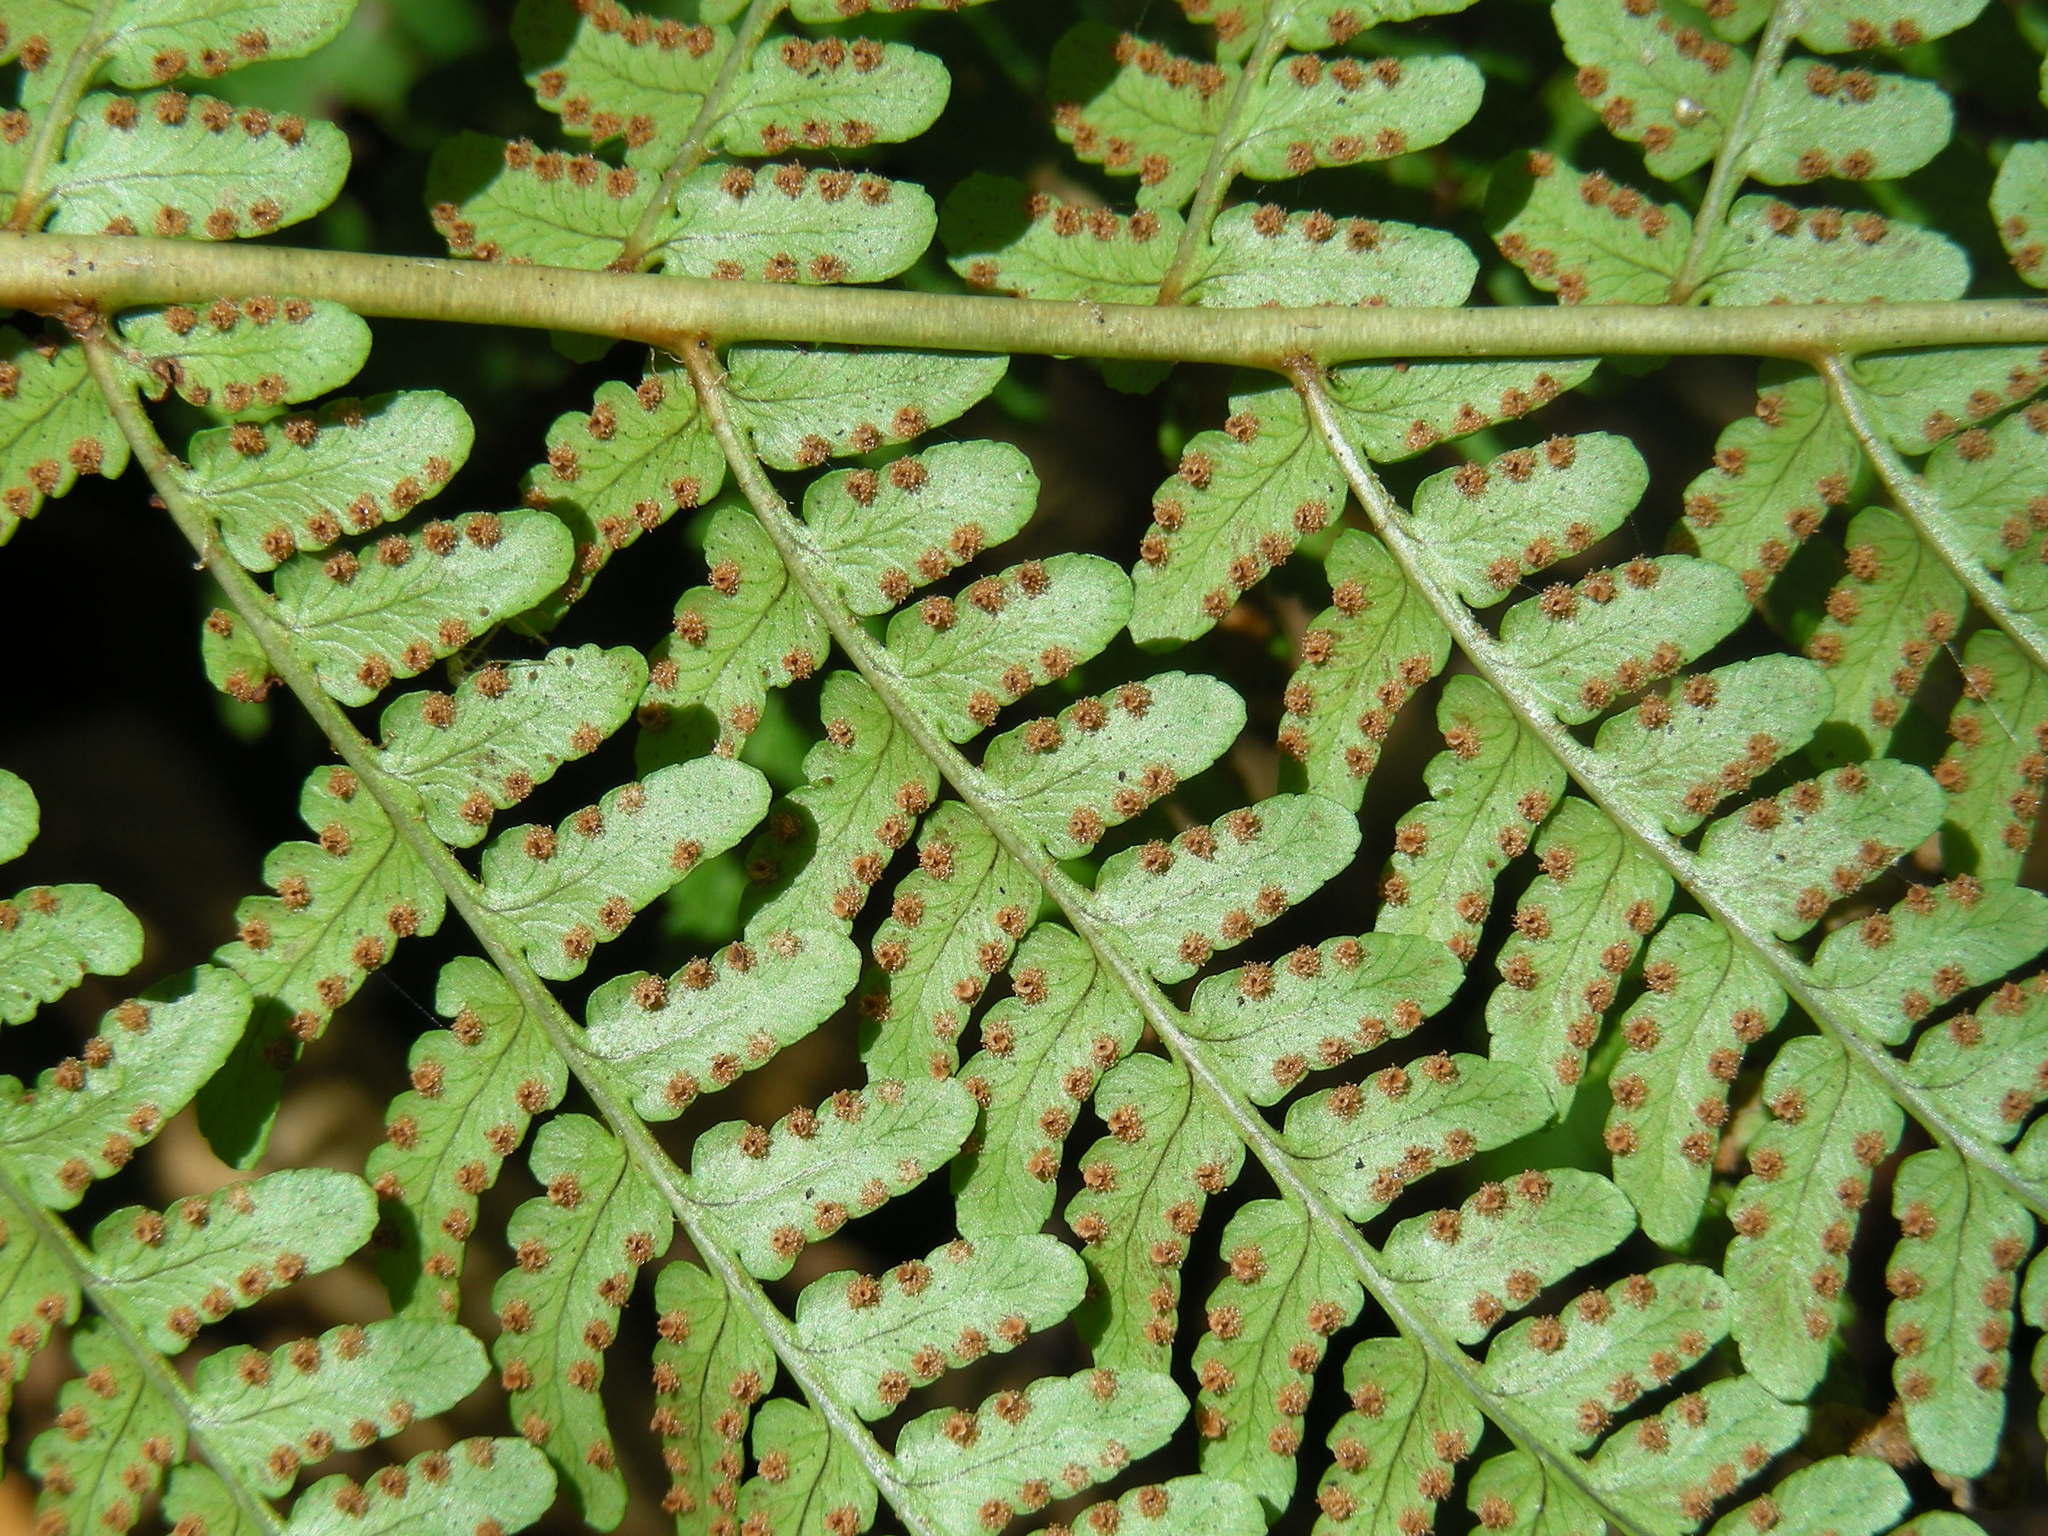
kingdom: Plantae
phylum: Tracheophyta
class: Polypodiopsida
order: Polypodiales
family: Dryopteridaceae
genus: Dryopteris
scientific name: Dryopteris marginalis
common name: Marginal wood fern
